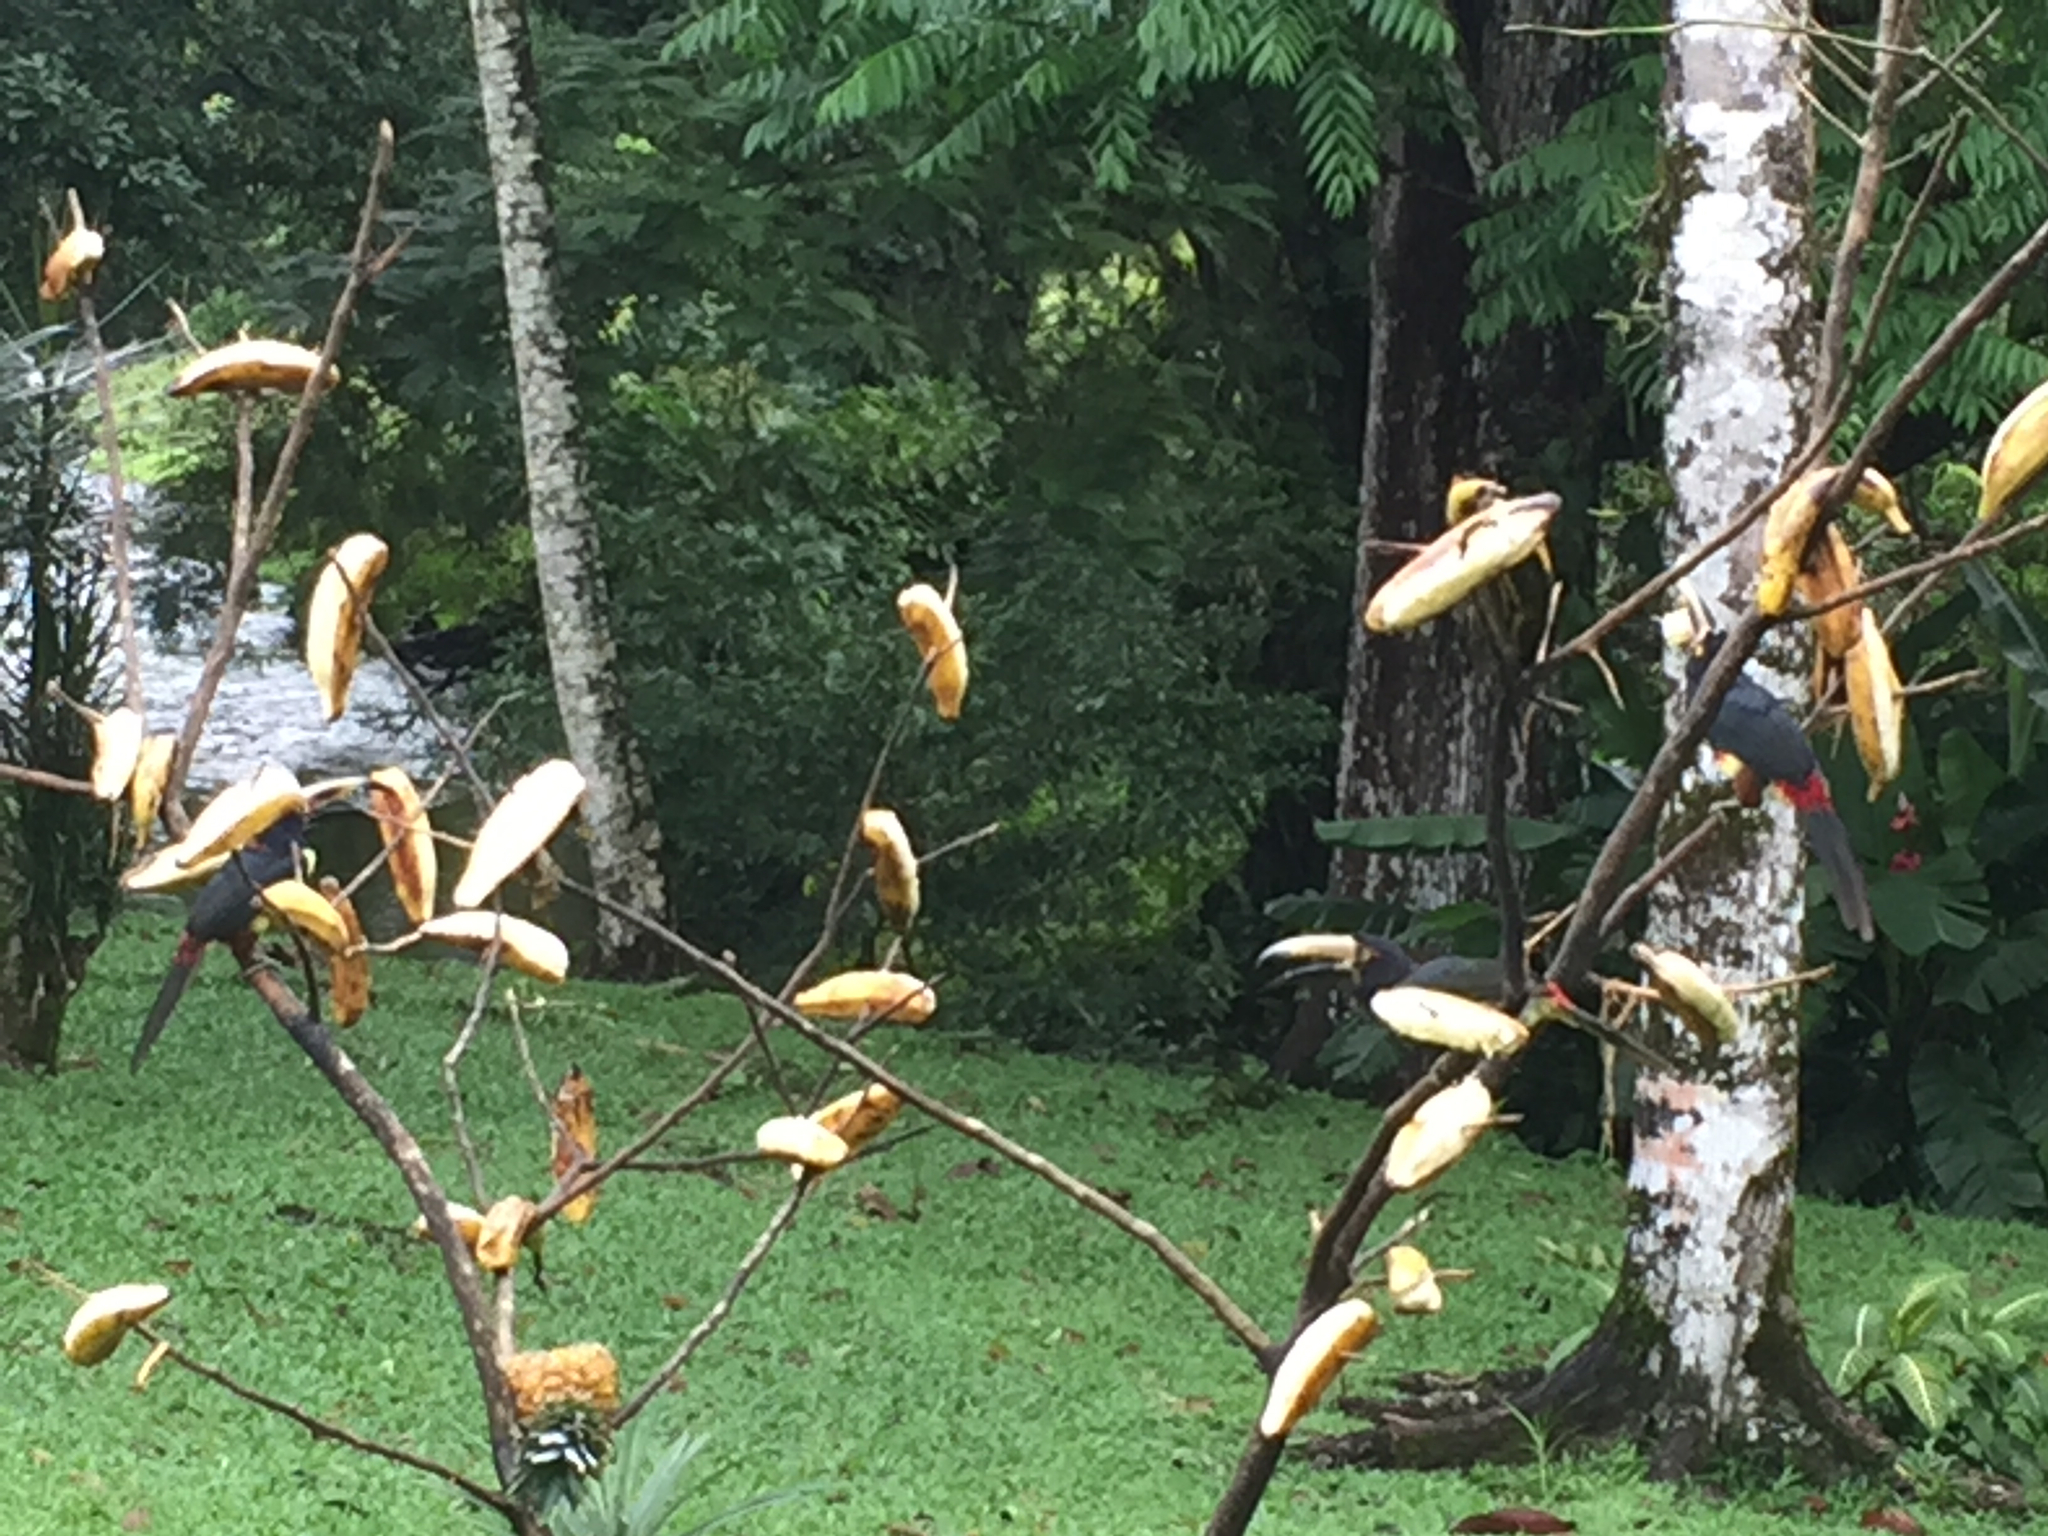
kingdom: Animalia
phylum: Chordata
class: Aves
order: Piciformes
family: Ramphastidae
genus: Pteroglossus
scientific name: Pteroglossus torquatus
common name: Collared aracari
